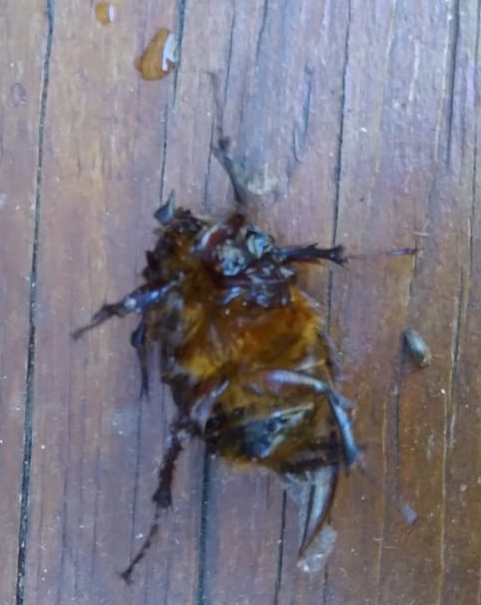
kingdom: Animalia
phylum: Arthropoda
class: Insecta
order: Coleoptera
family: Pleocomidae
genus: Pleocoma
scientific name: Pleocoma australis
